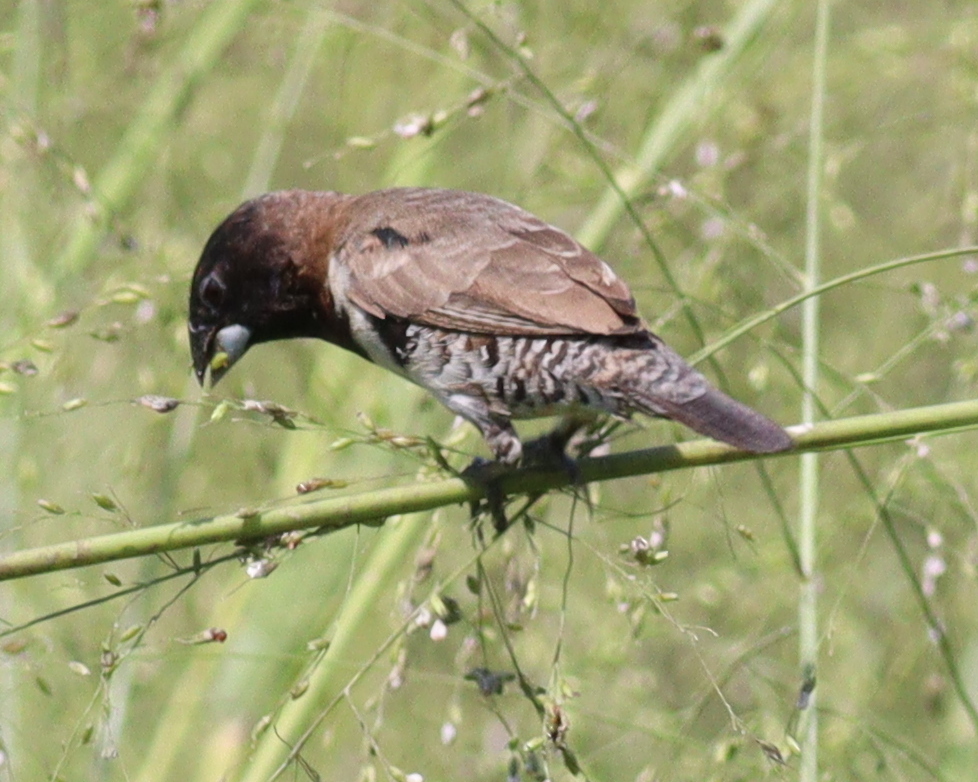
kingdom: Animalia
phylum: Chordata
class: Aves
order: Passeriformes
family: Estrildidae
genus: Lonchura
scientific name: Lonchura cucullata
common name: Bronze mannikin
